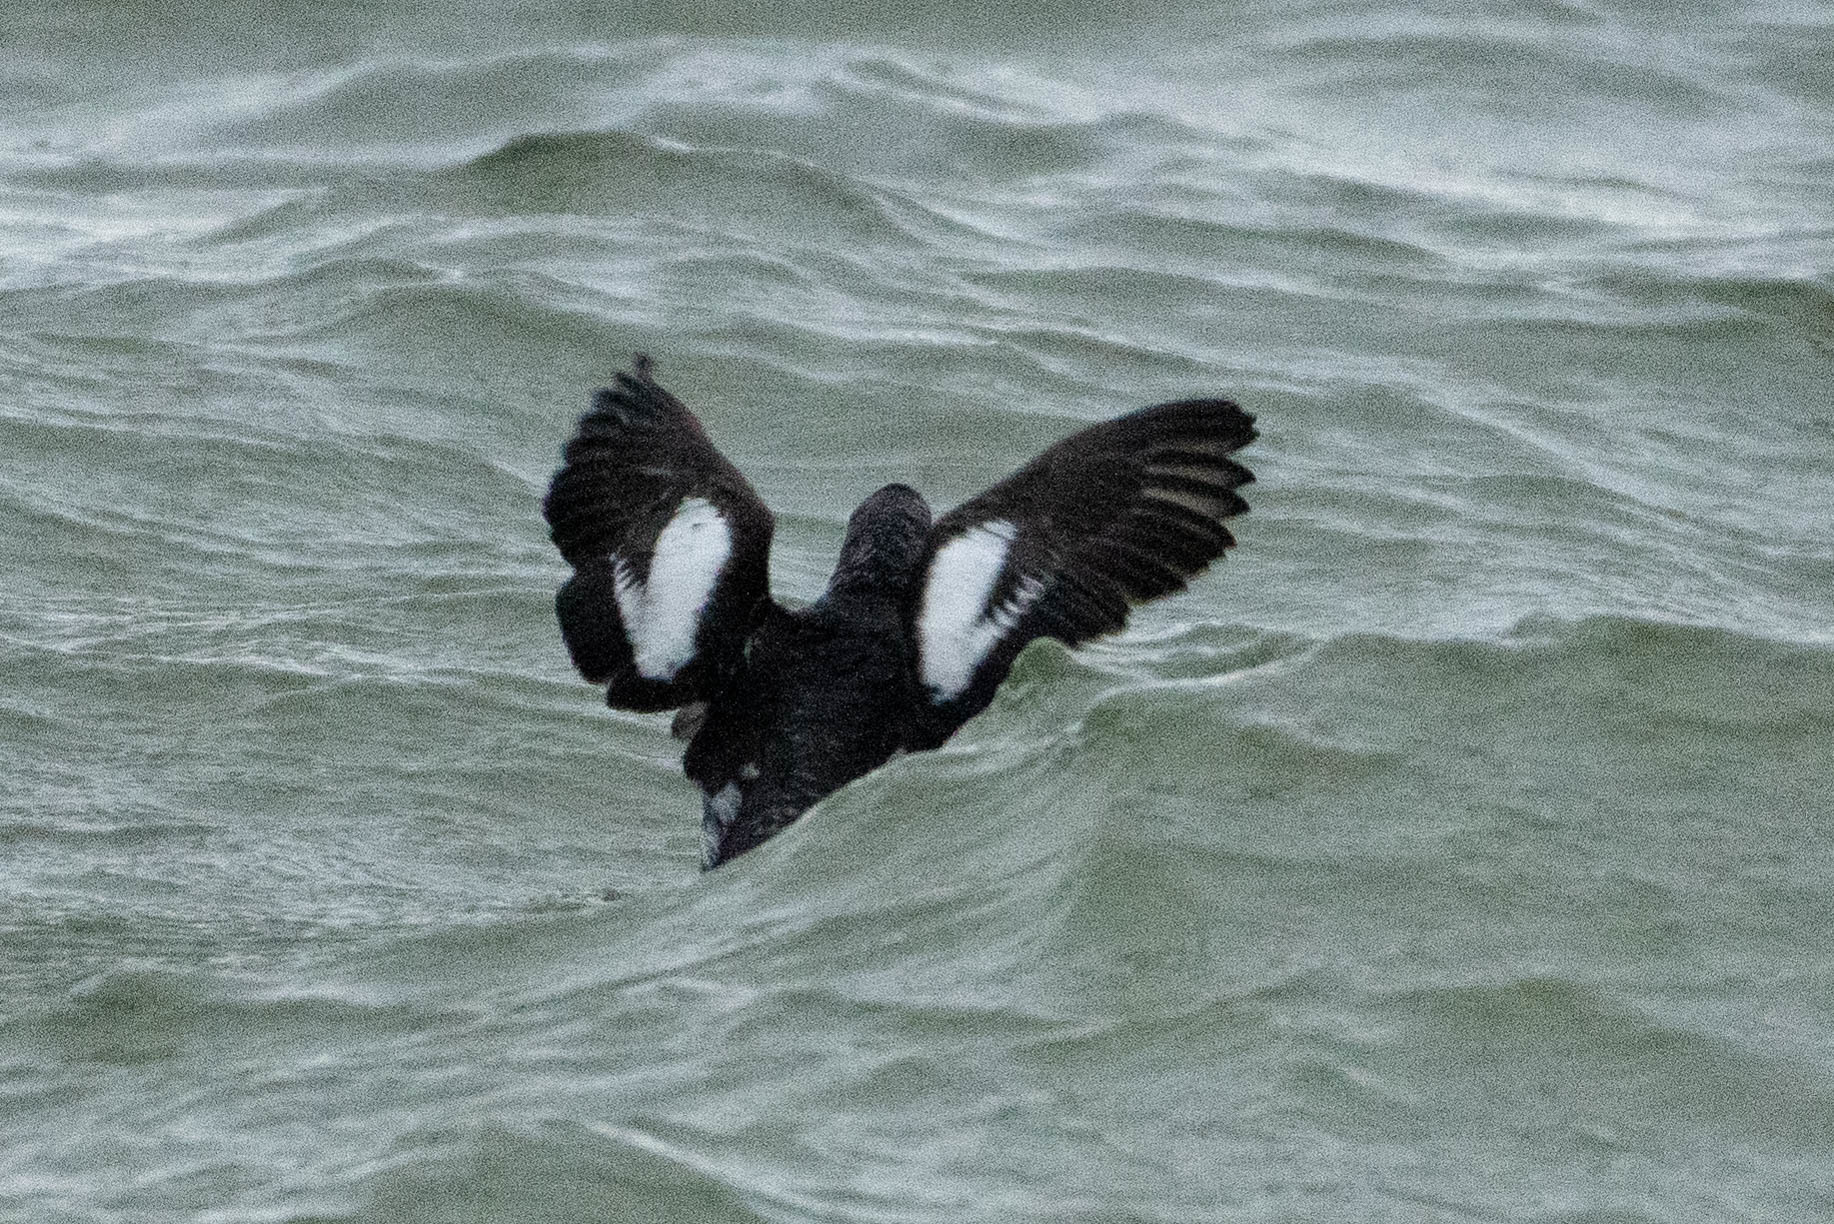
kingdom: Animalia
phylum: Chordata
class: Aves
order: Charadriiformes
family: Alcidae
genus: Cepphus
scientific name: Cepphus columba
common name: Pigeon guillemot
